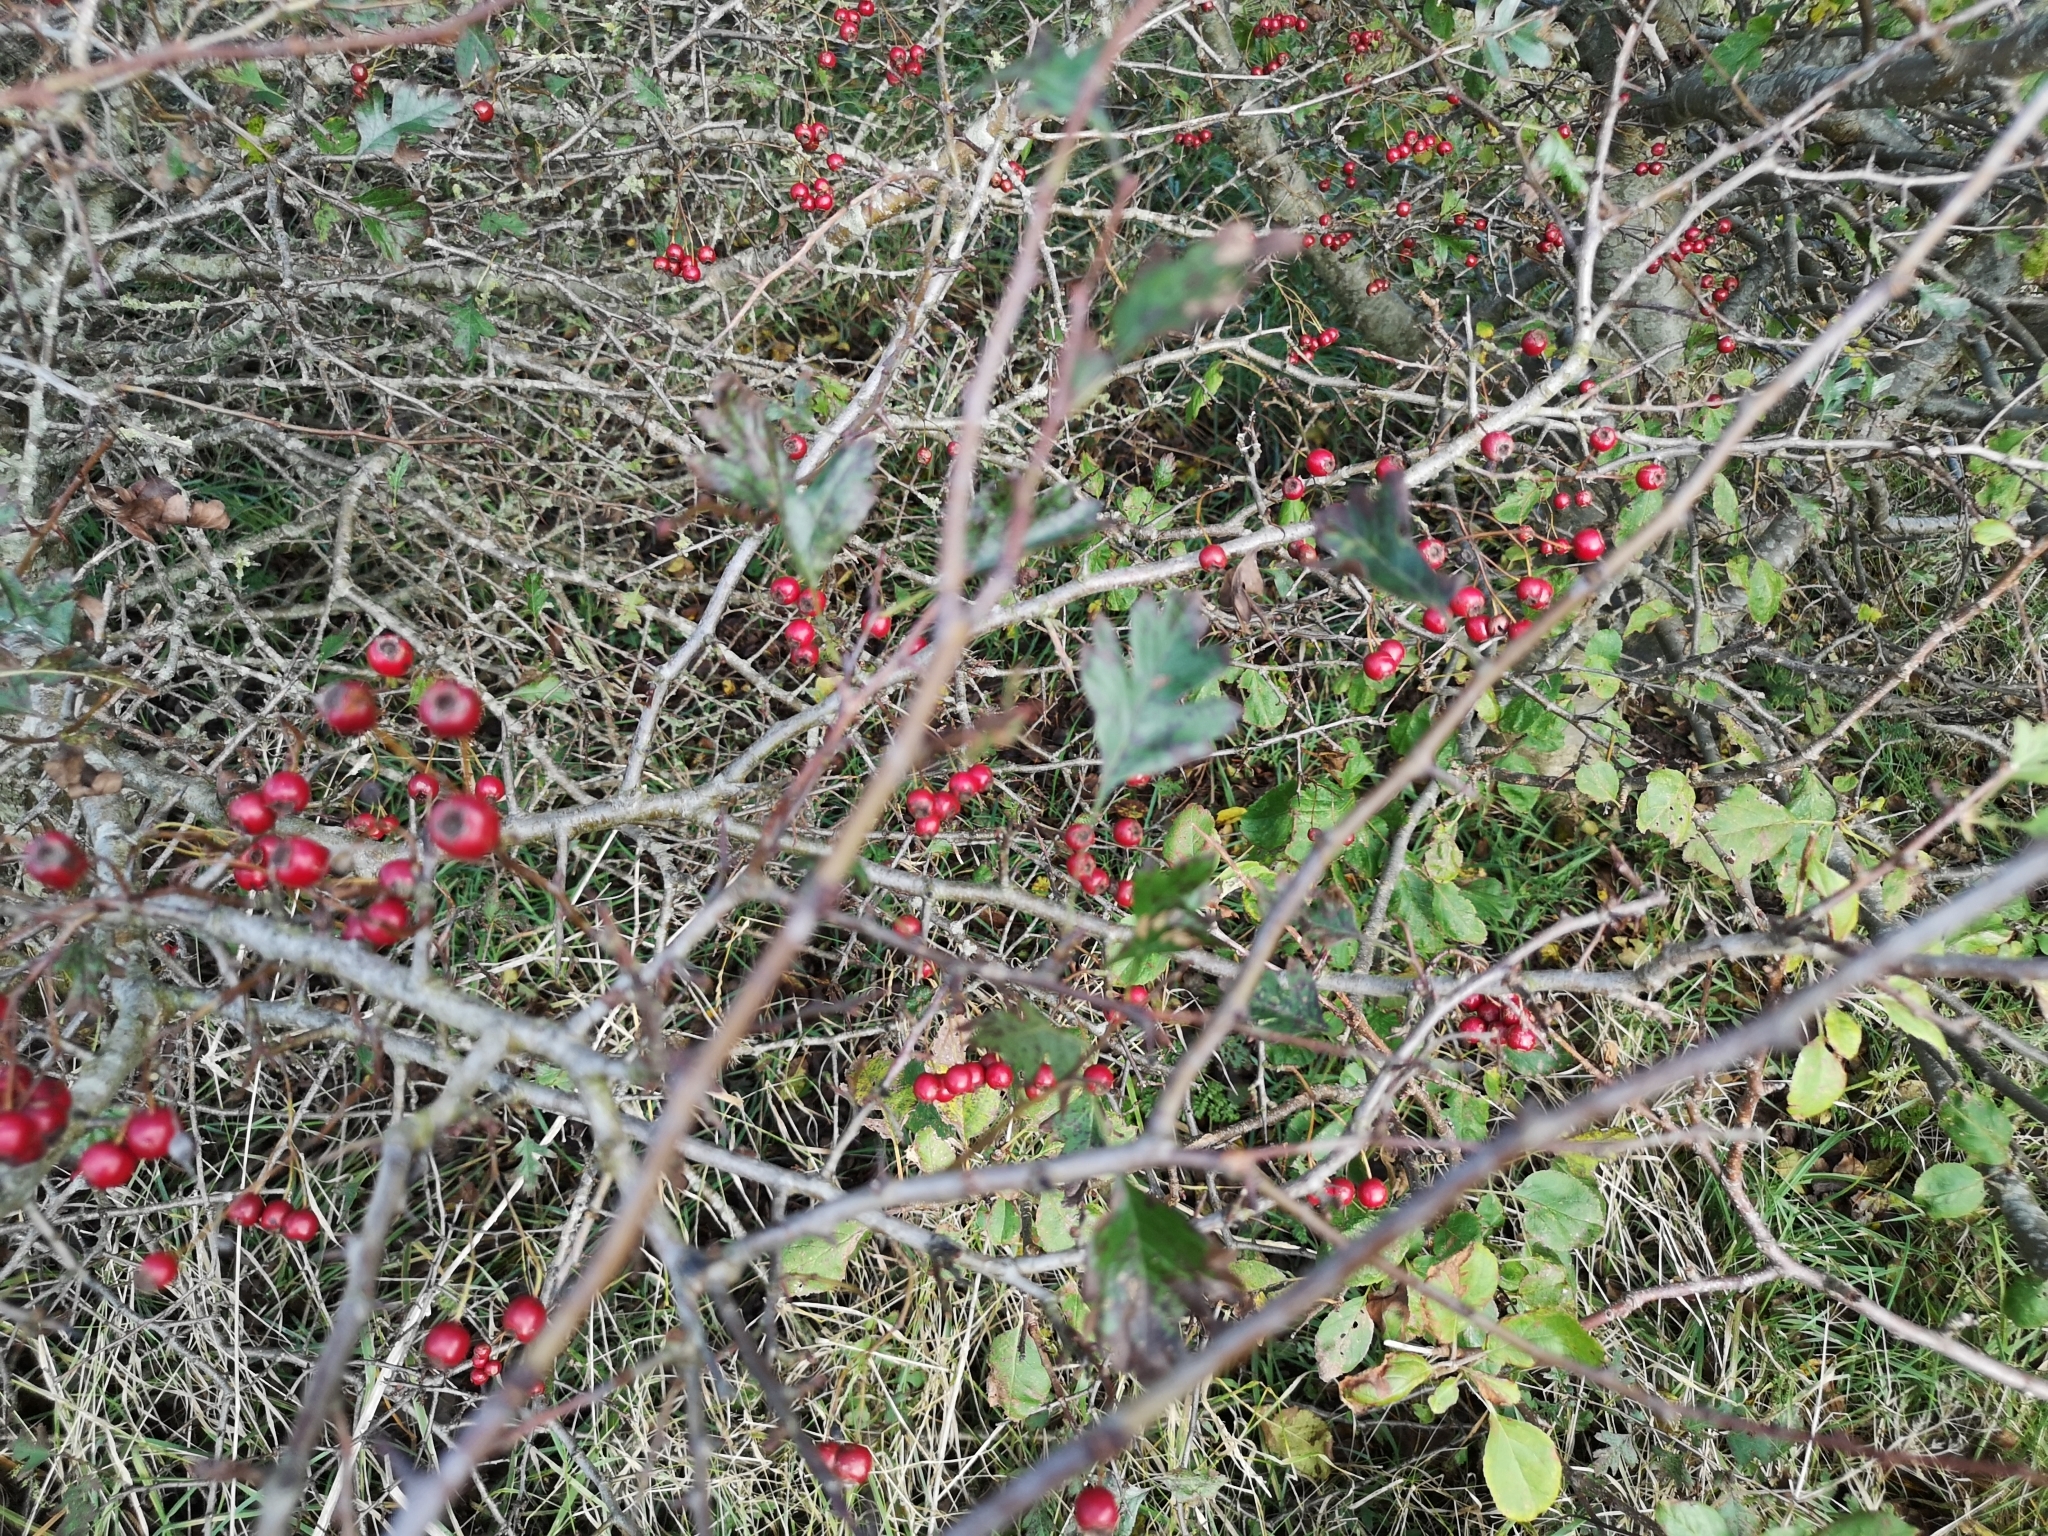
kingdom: Plantae
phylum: Tracheophyta
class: Magnoliopsida
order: Rosales
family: Rosaceae
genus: Crataegus
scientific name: Crataegus monogyna
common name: Hawthorn
